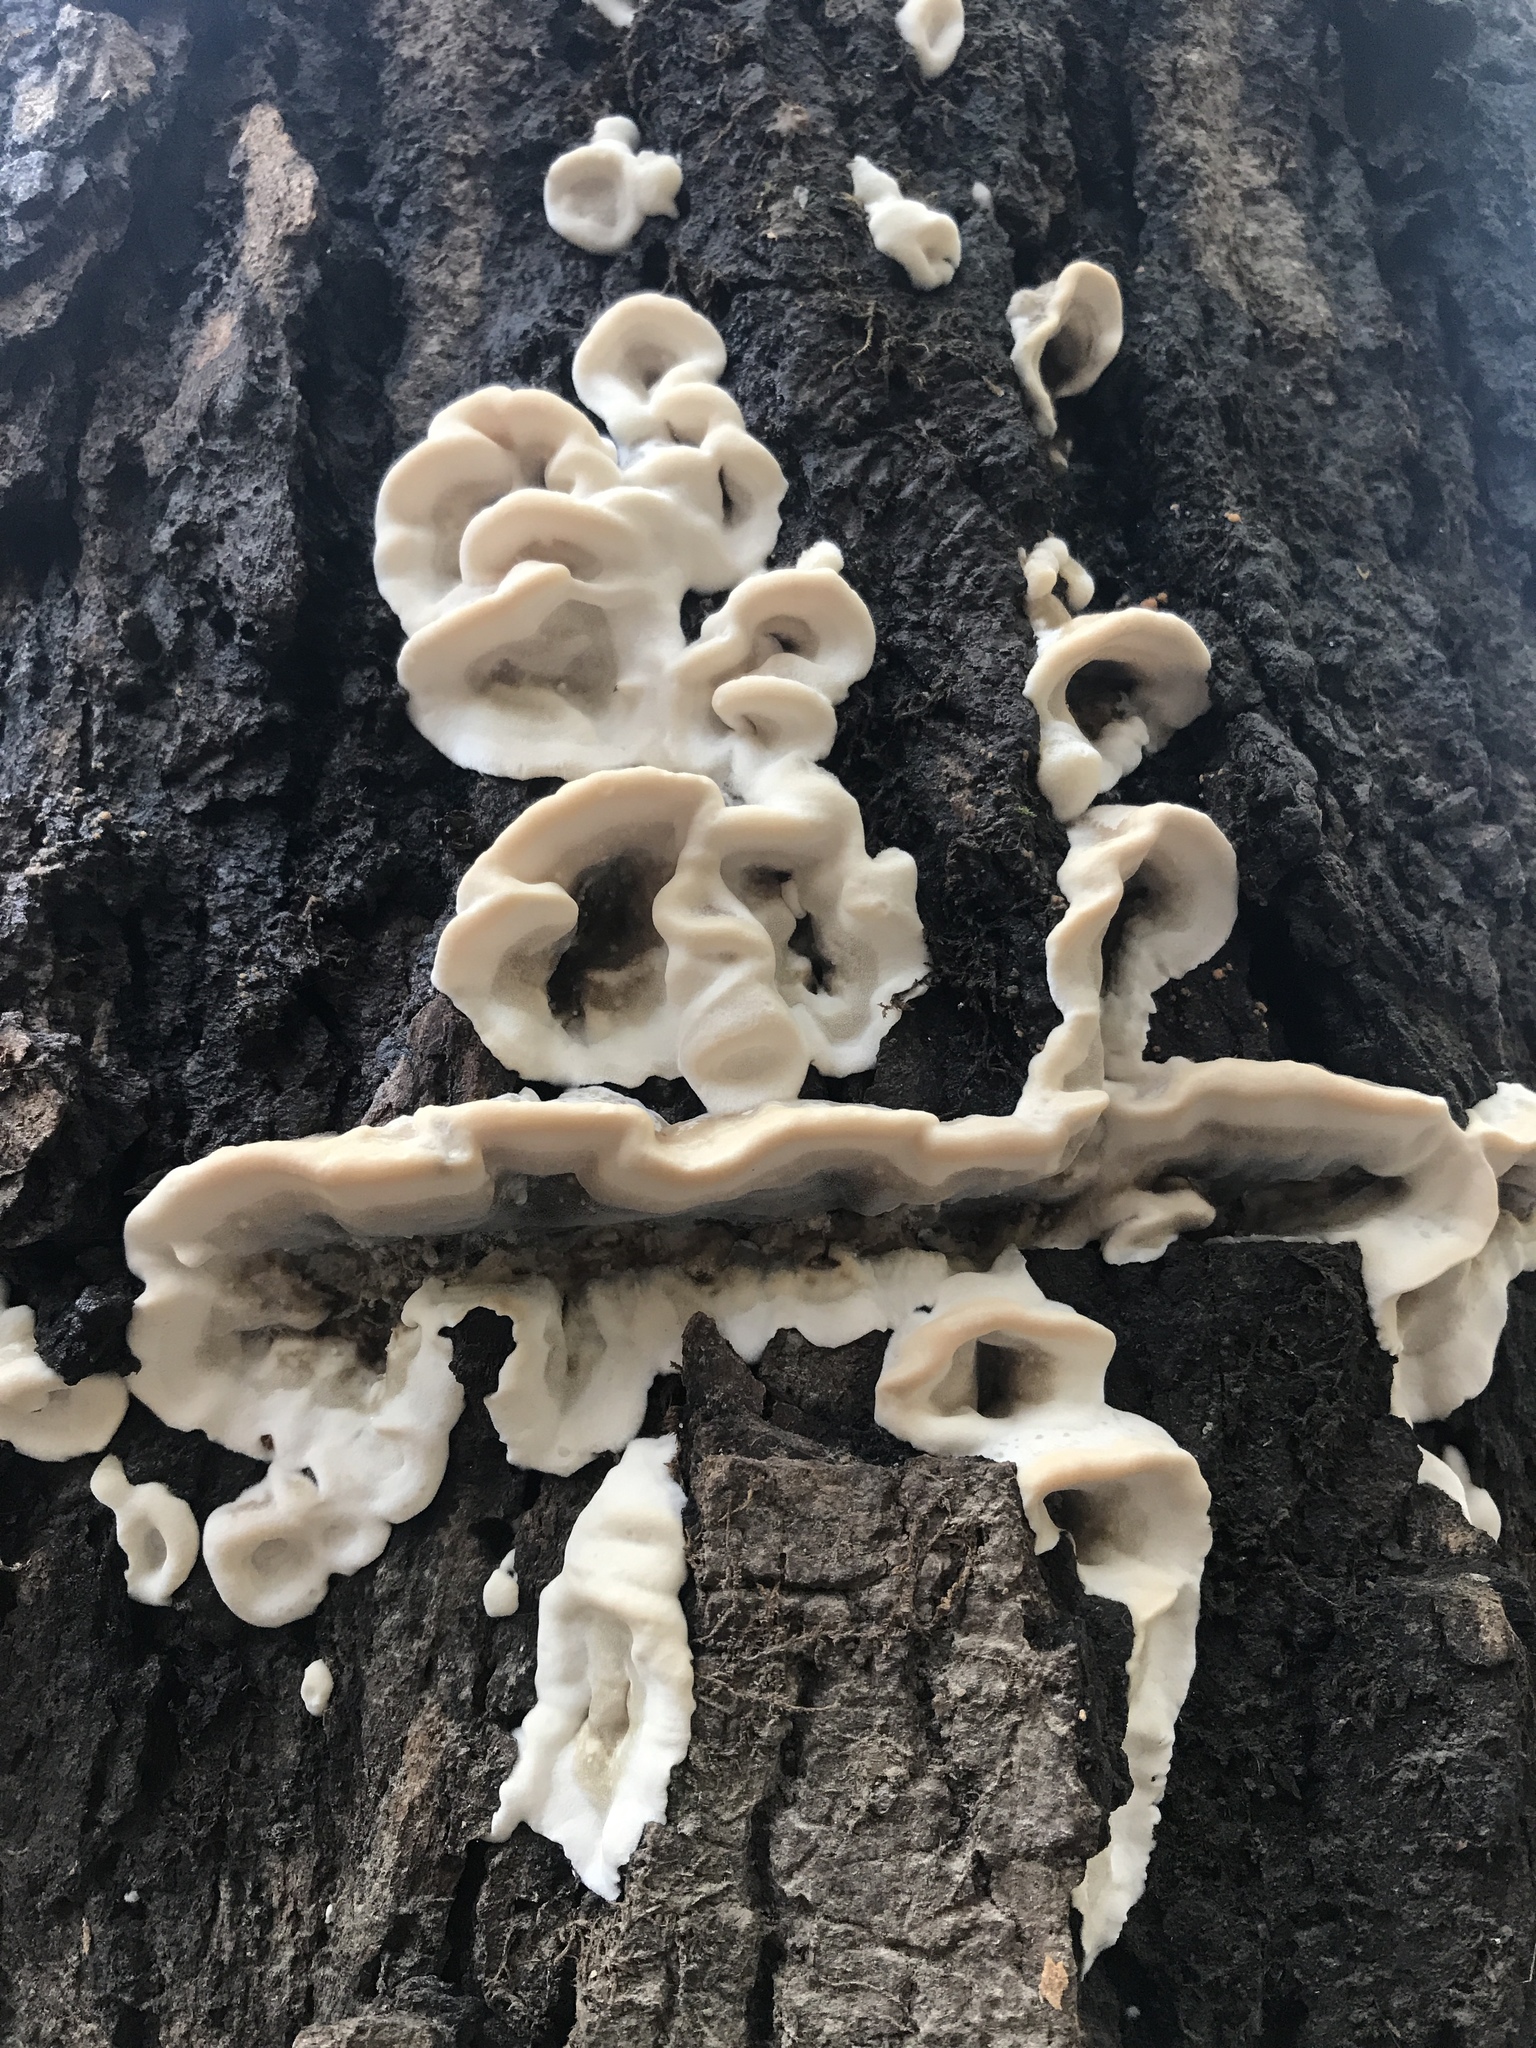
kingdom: Fungi
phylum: Basidiomycota
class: Agaricomycetes
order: Polyporales
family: Phanerochaetaceae
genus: Bjerkandera
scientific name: Bjerkandera adusta
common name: Smoky bracket
